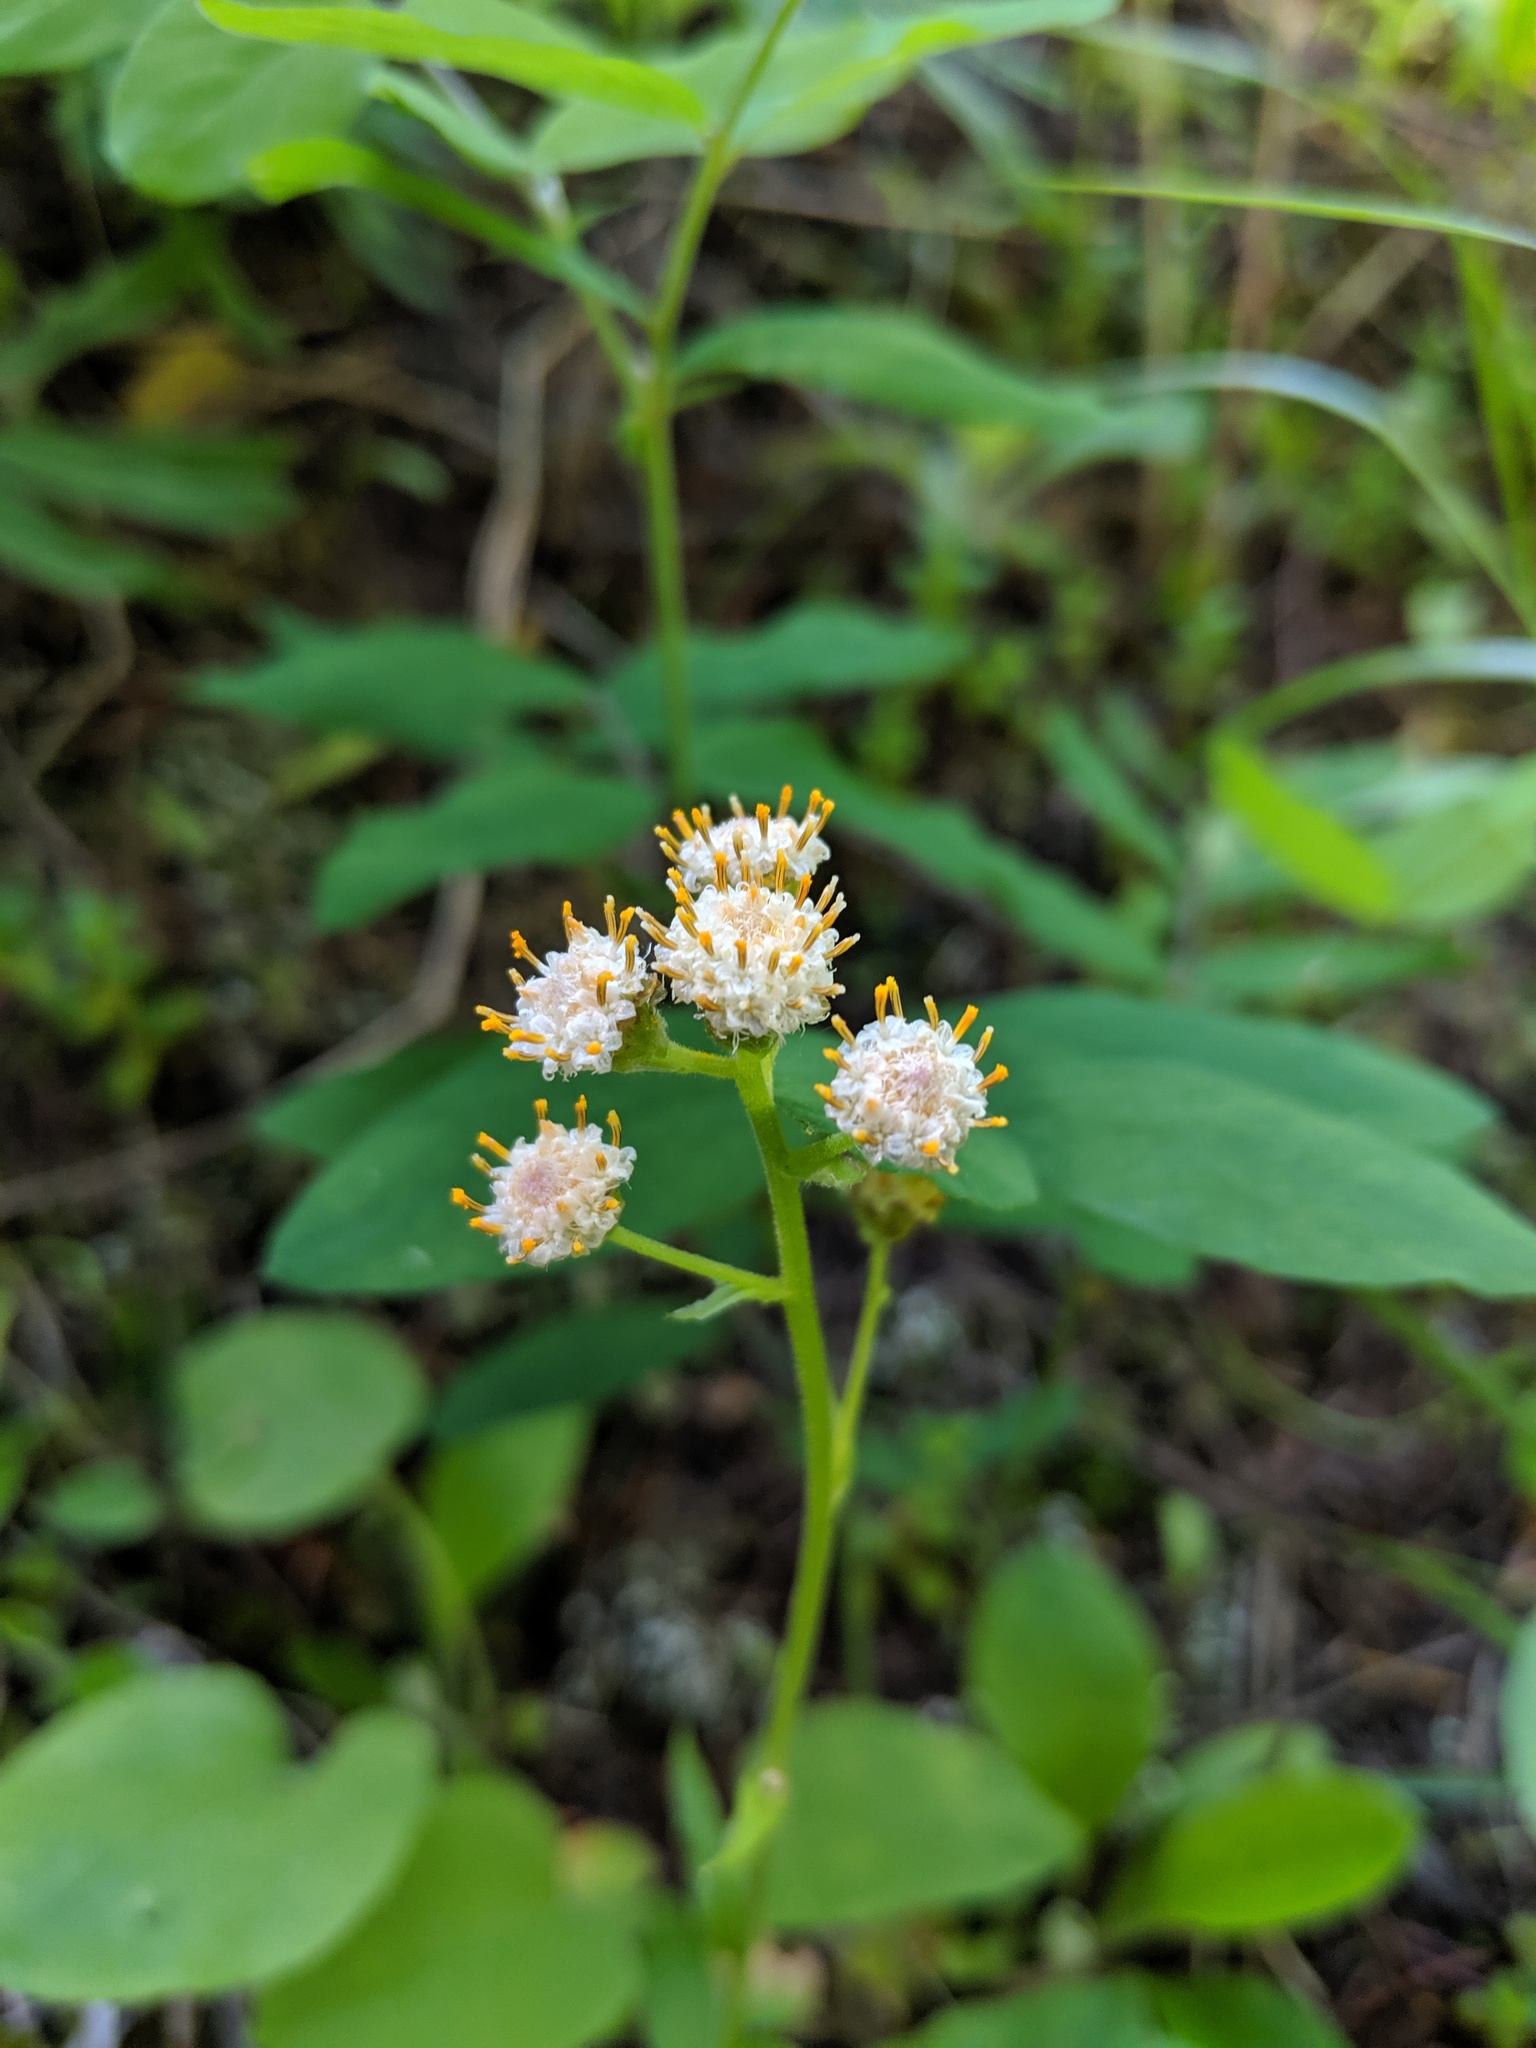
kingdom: Plantae
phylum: Tracheophyta
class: Magnoliopsida
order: Asterales
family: Asteraceae
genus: Antennaria
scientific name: Antennaria racemosa
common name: Racemose pussytoes
